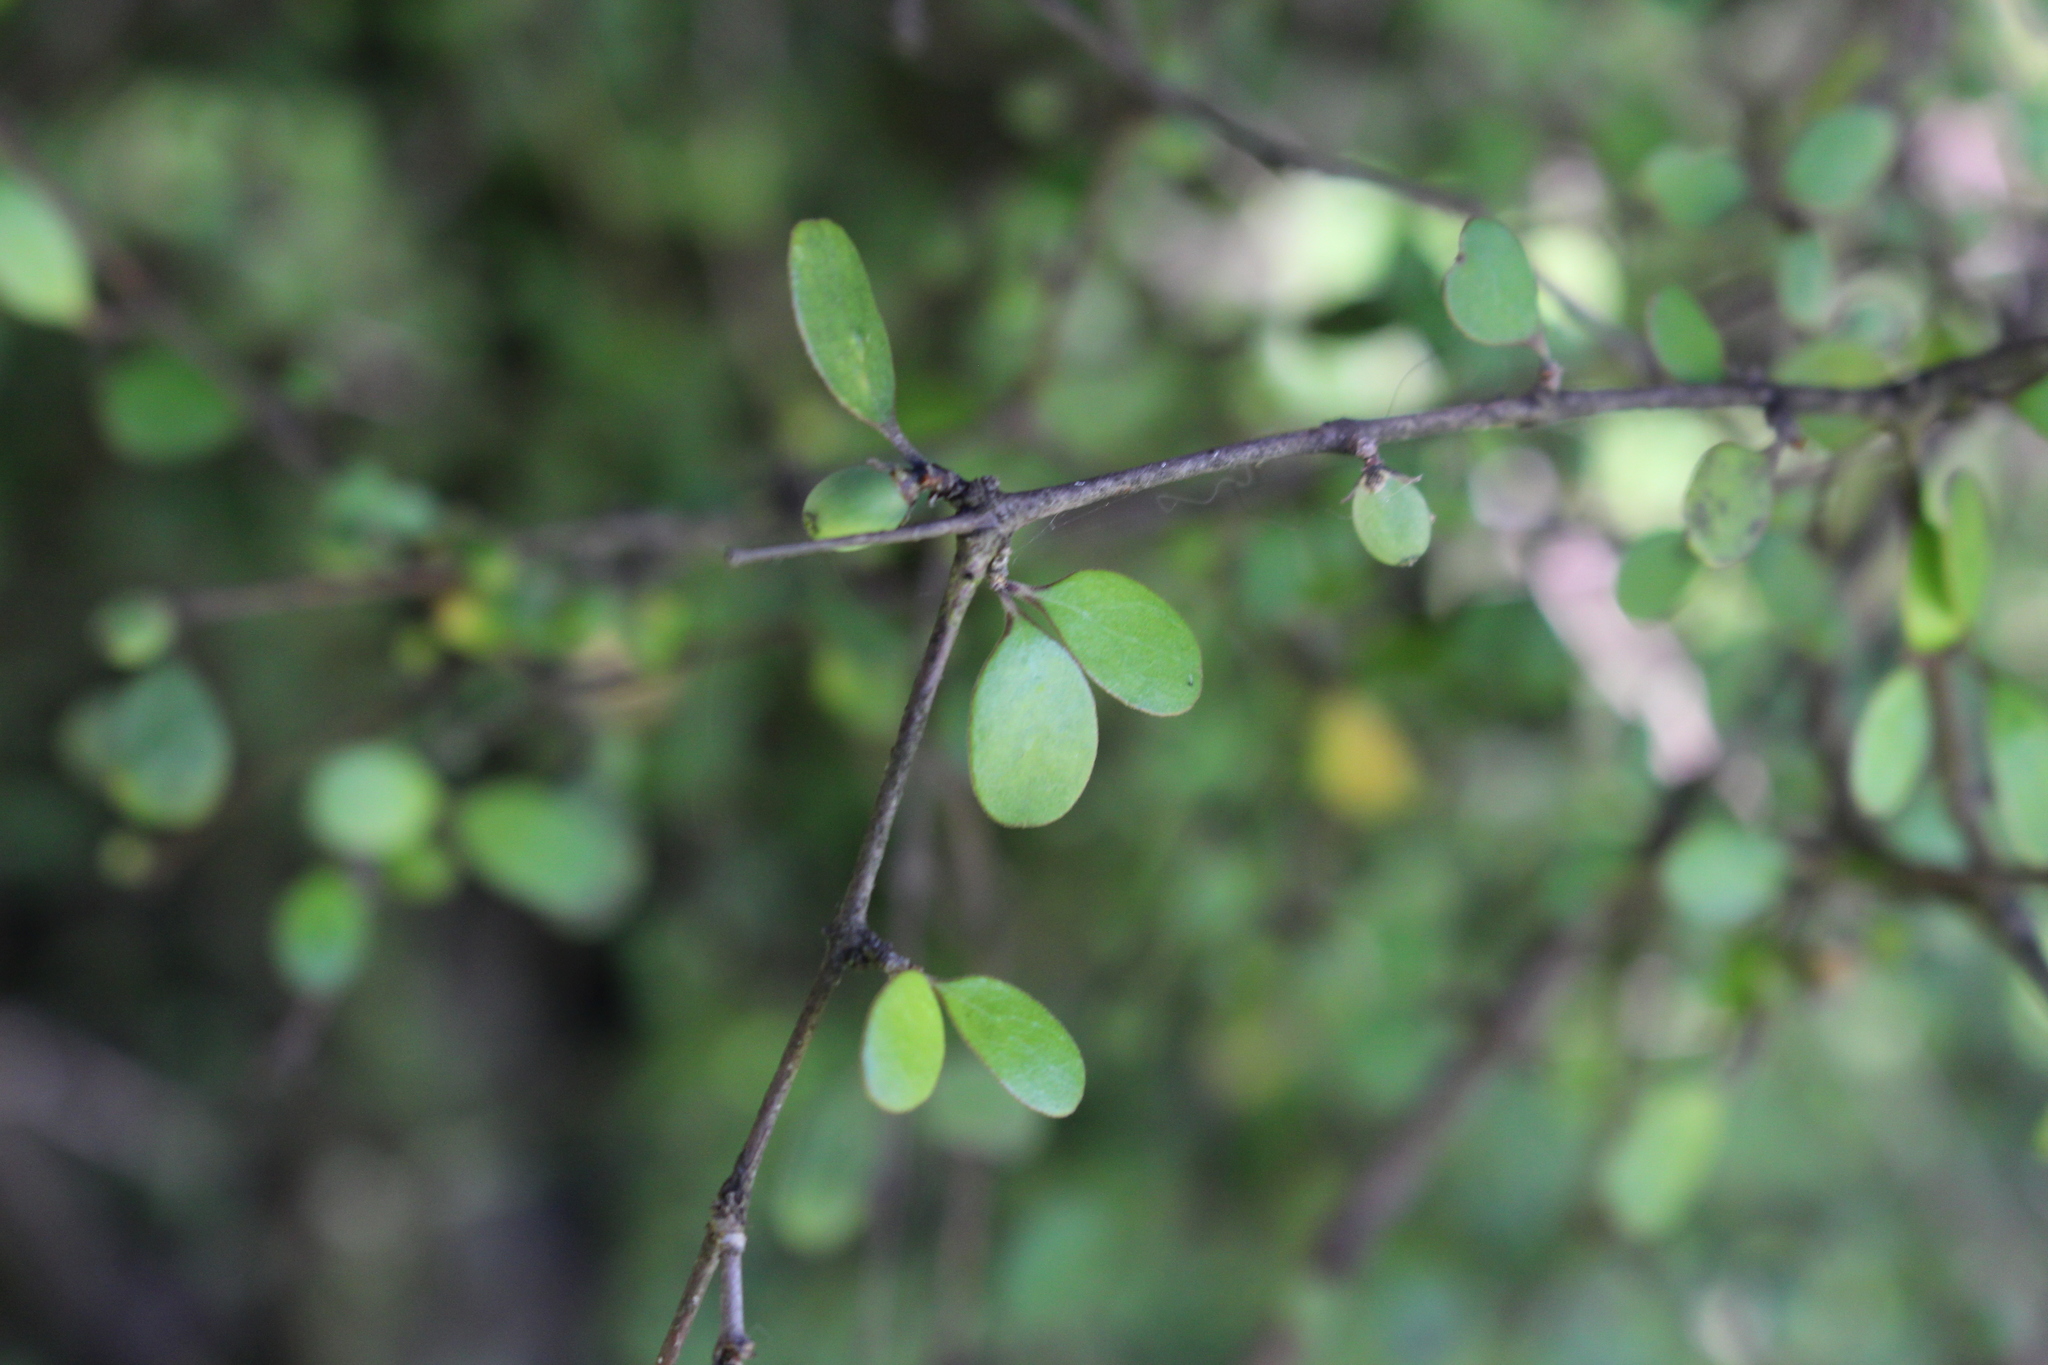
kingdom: Plantae
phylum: Tracheophyta
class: Magnoliopsida
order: Gentianales
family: Rubiaceae
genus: Coprosma
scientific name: Coprosma crassifolia
